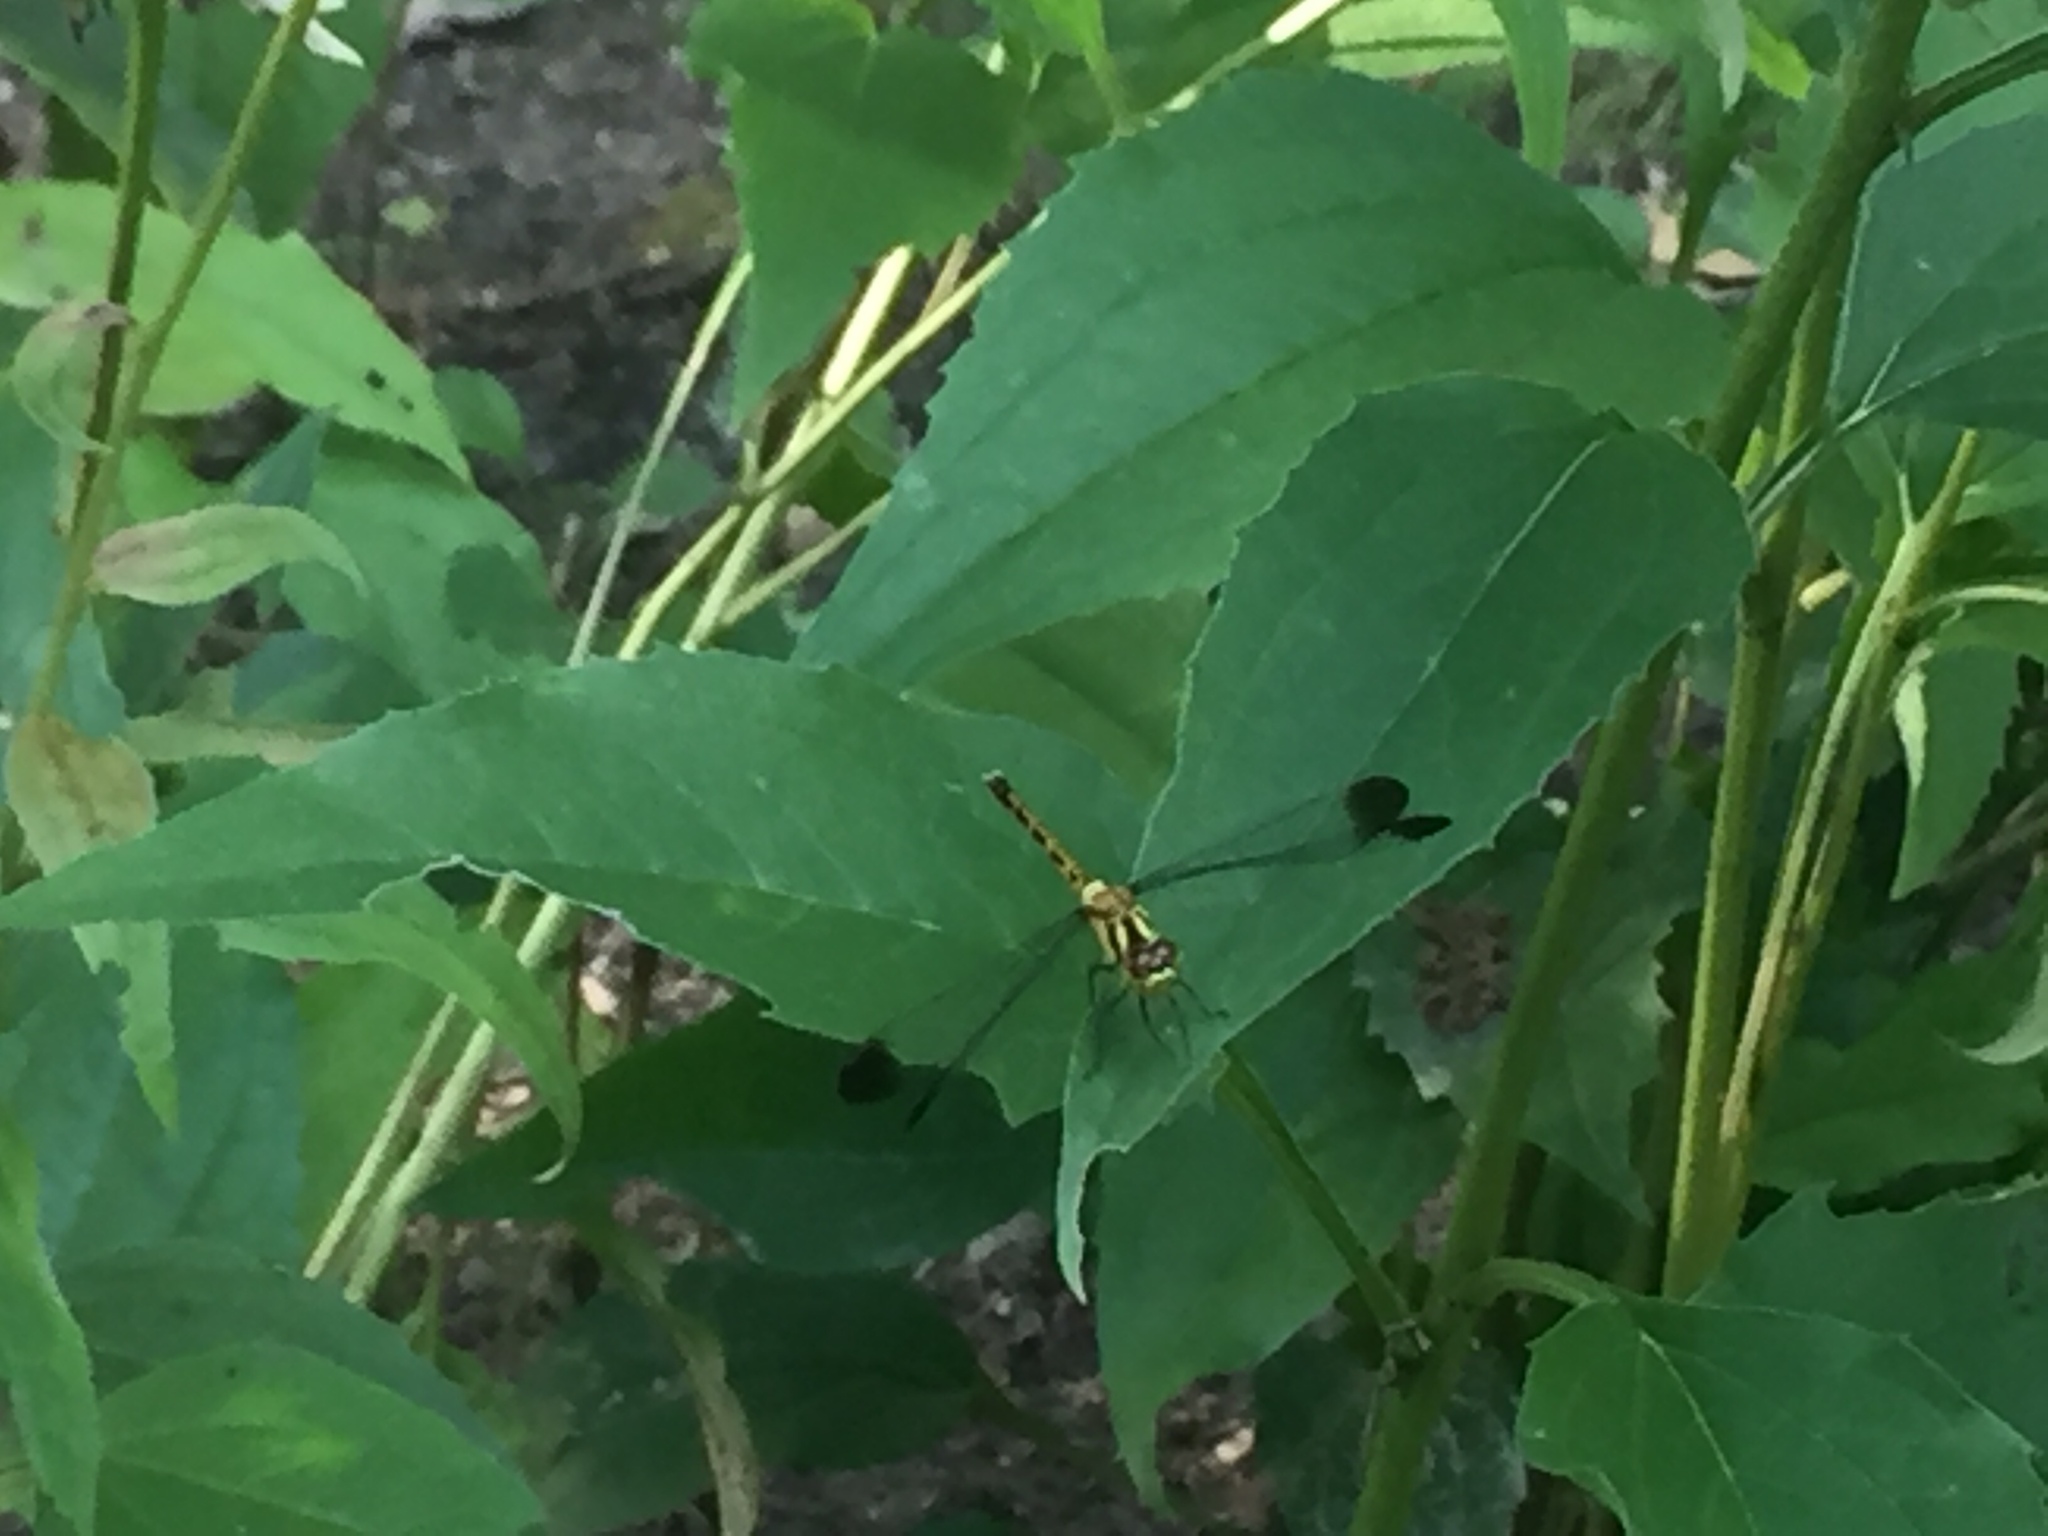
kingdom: Animalia
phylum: Arthropoda
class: Insecta
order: Odonata
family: Libellulidae
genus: Sympetrum
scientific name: Sympetrum eroticum
